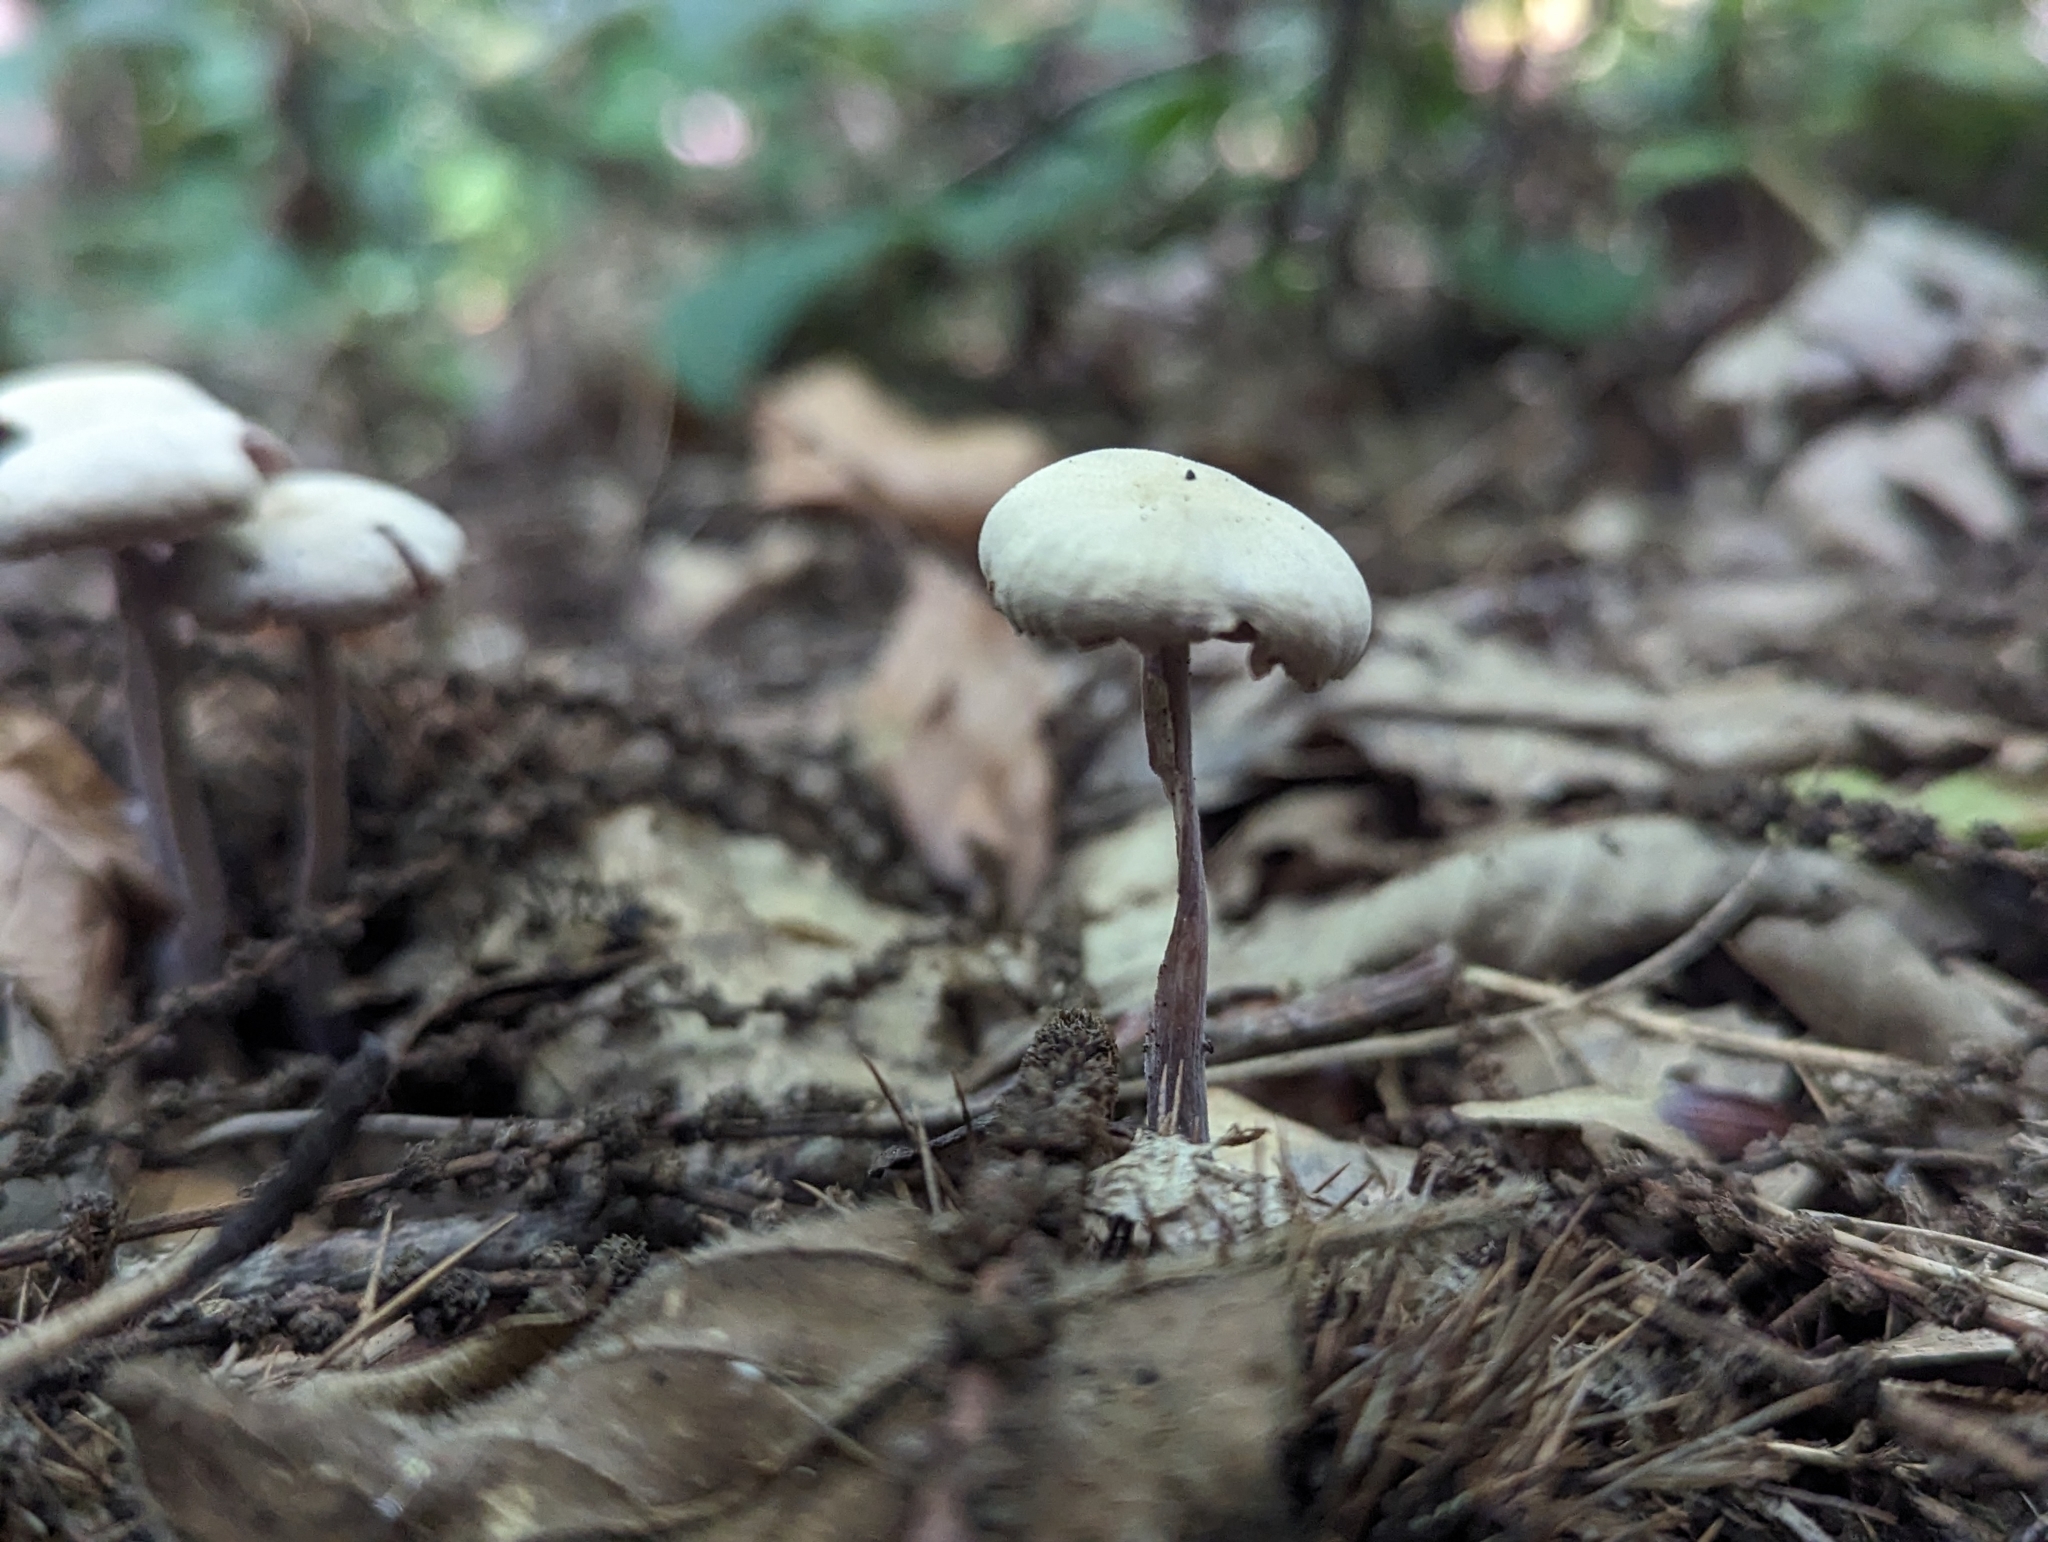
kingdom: Fungi
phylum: Basidiomycota
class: Agaricomycetes
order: Agaricales
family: Hydnangiaceae
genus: Laccaria
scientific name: Laccaria amethystina
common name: Amethyst deceiver
